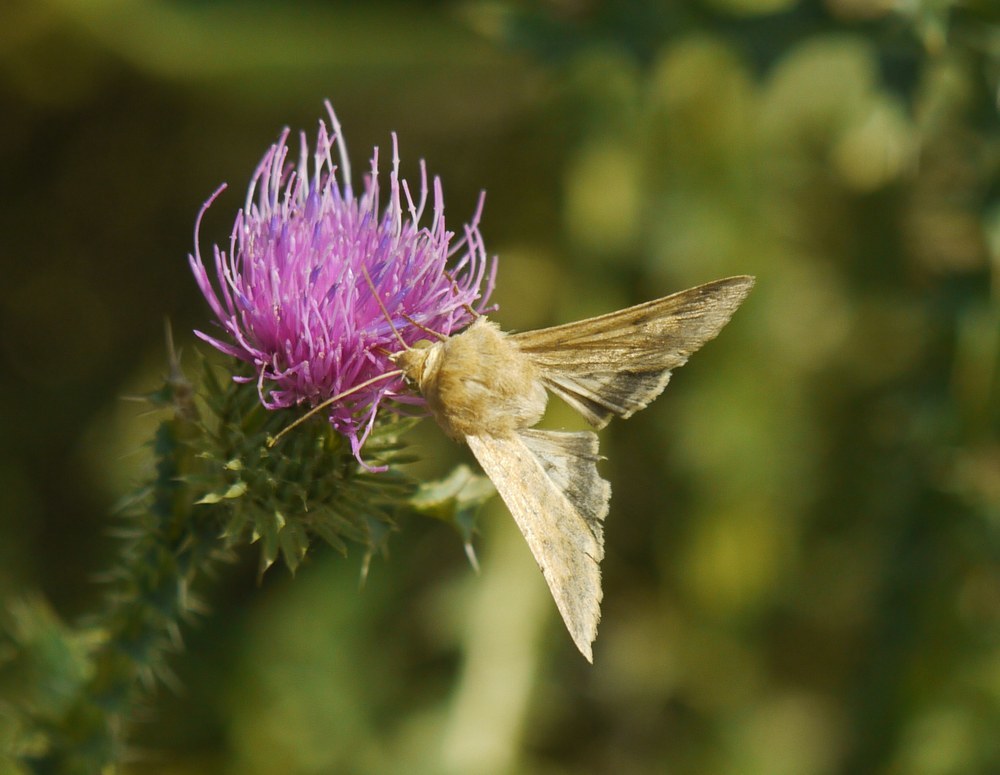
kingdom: Animalia
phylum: Arthropoda
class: Insecta
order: Lepidoptera
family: Noctuidae
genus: Helicoverpa
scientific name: Helicoverpa armigera
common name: Cotton bollworm
